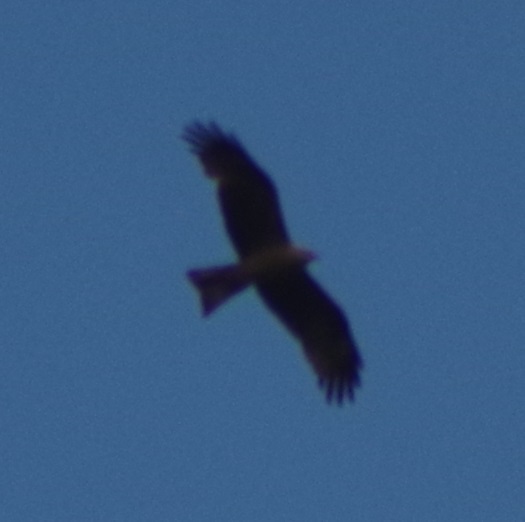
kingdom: Animalia
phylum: Chordata
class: Aves
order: Accipitriformes
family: Accipitridae
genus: Milvus
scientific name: Milvus migrans
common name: Black kite
